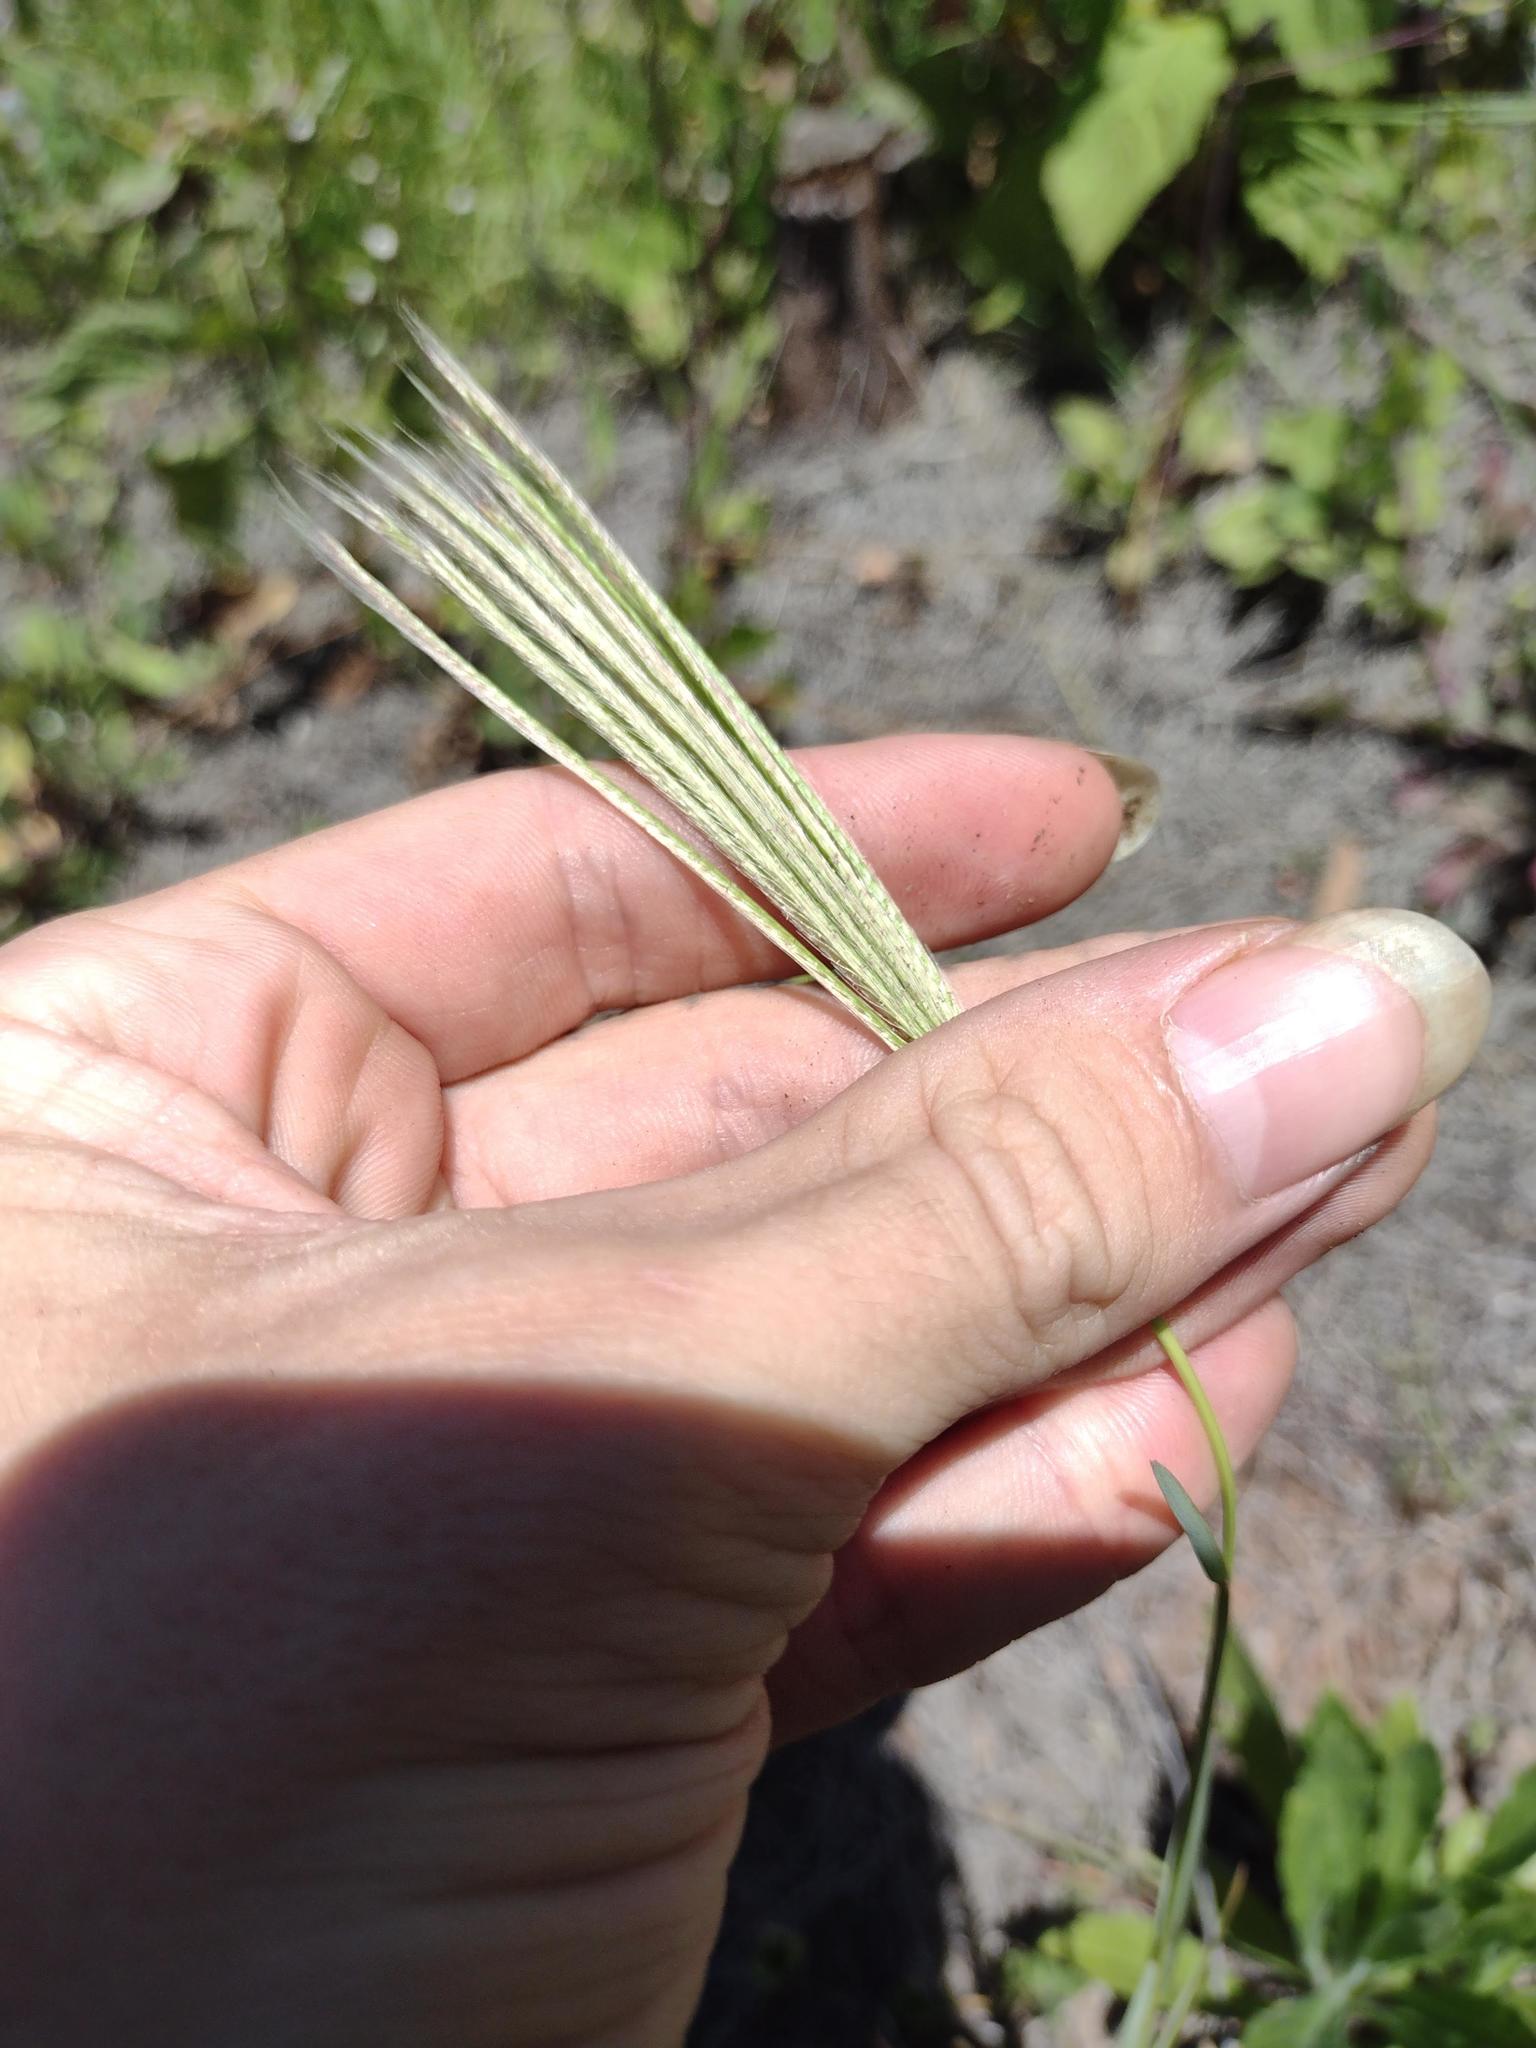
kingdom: Plantae
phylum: Tracheophyta
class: Liliopsida
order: Poales
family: Poaceae
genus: Chloris
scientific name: Chloris radiata
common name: Radiate fingergrass
